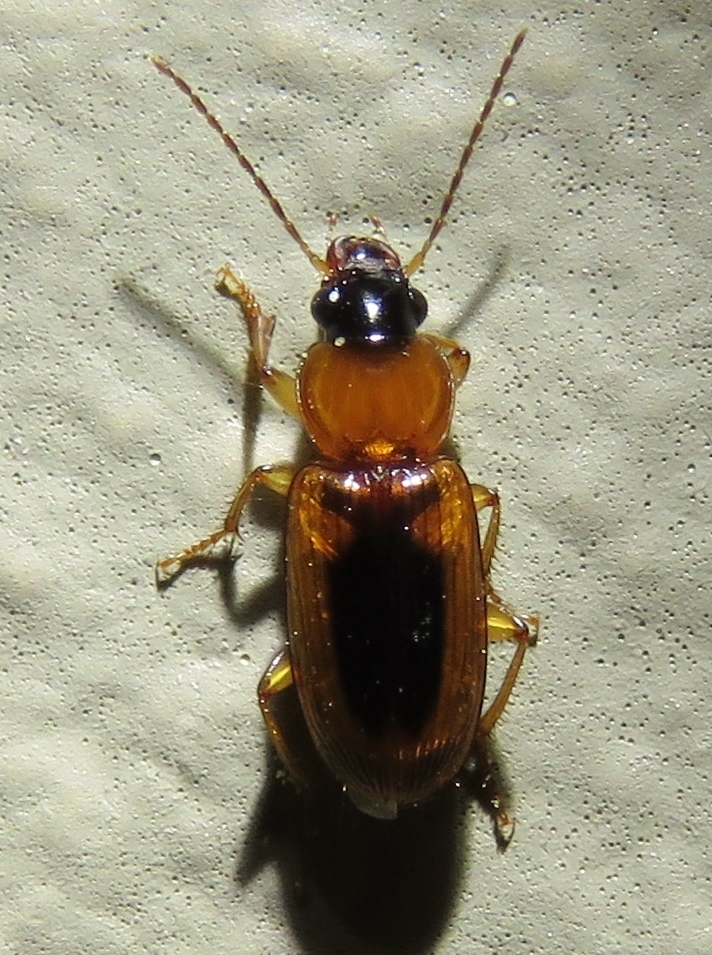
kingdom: Animalia
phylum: Arthropoda
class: Insecta
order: Coleoptera
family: Carabidae
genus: Stenolophus
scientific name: Stenolophus lecontei
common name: Leconte's seedcorn beetle
